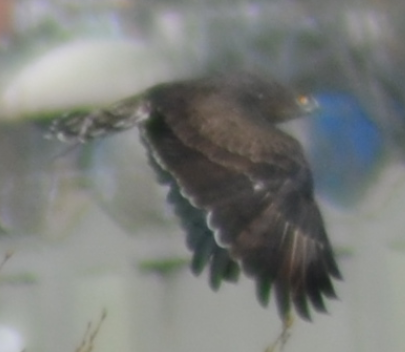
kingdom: Animalia
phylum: Chordata
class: Aves
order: Accipitriformes
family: Accipitridae
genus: Circaetus
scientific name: Circaetus gallicus
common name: Short-toed snake eagle
